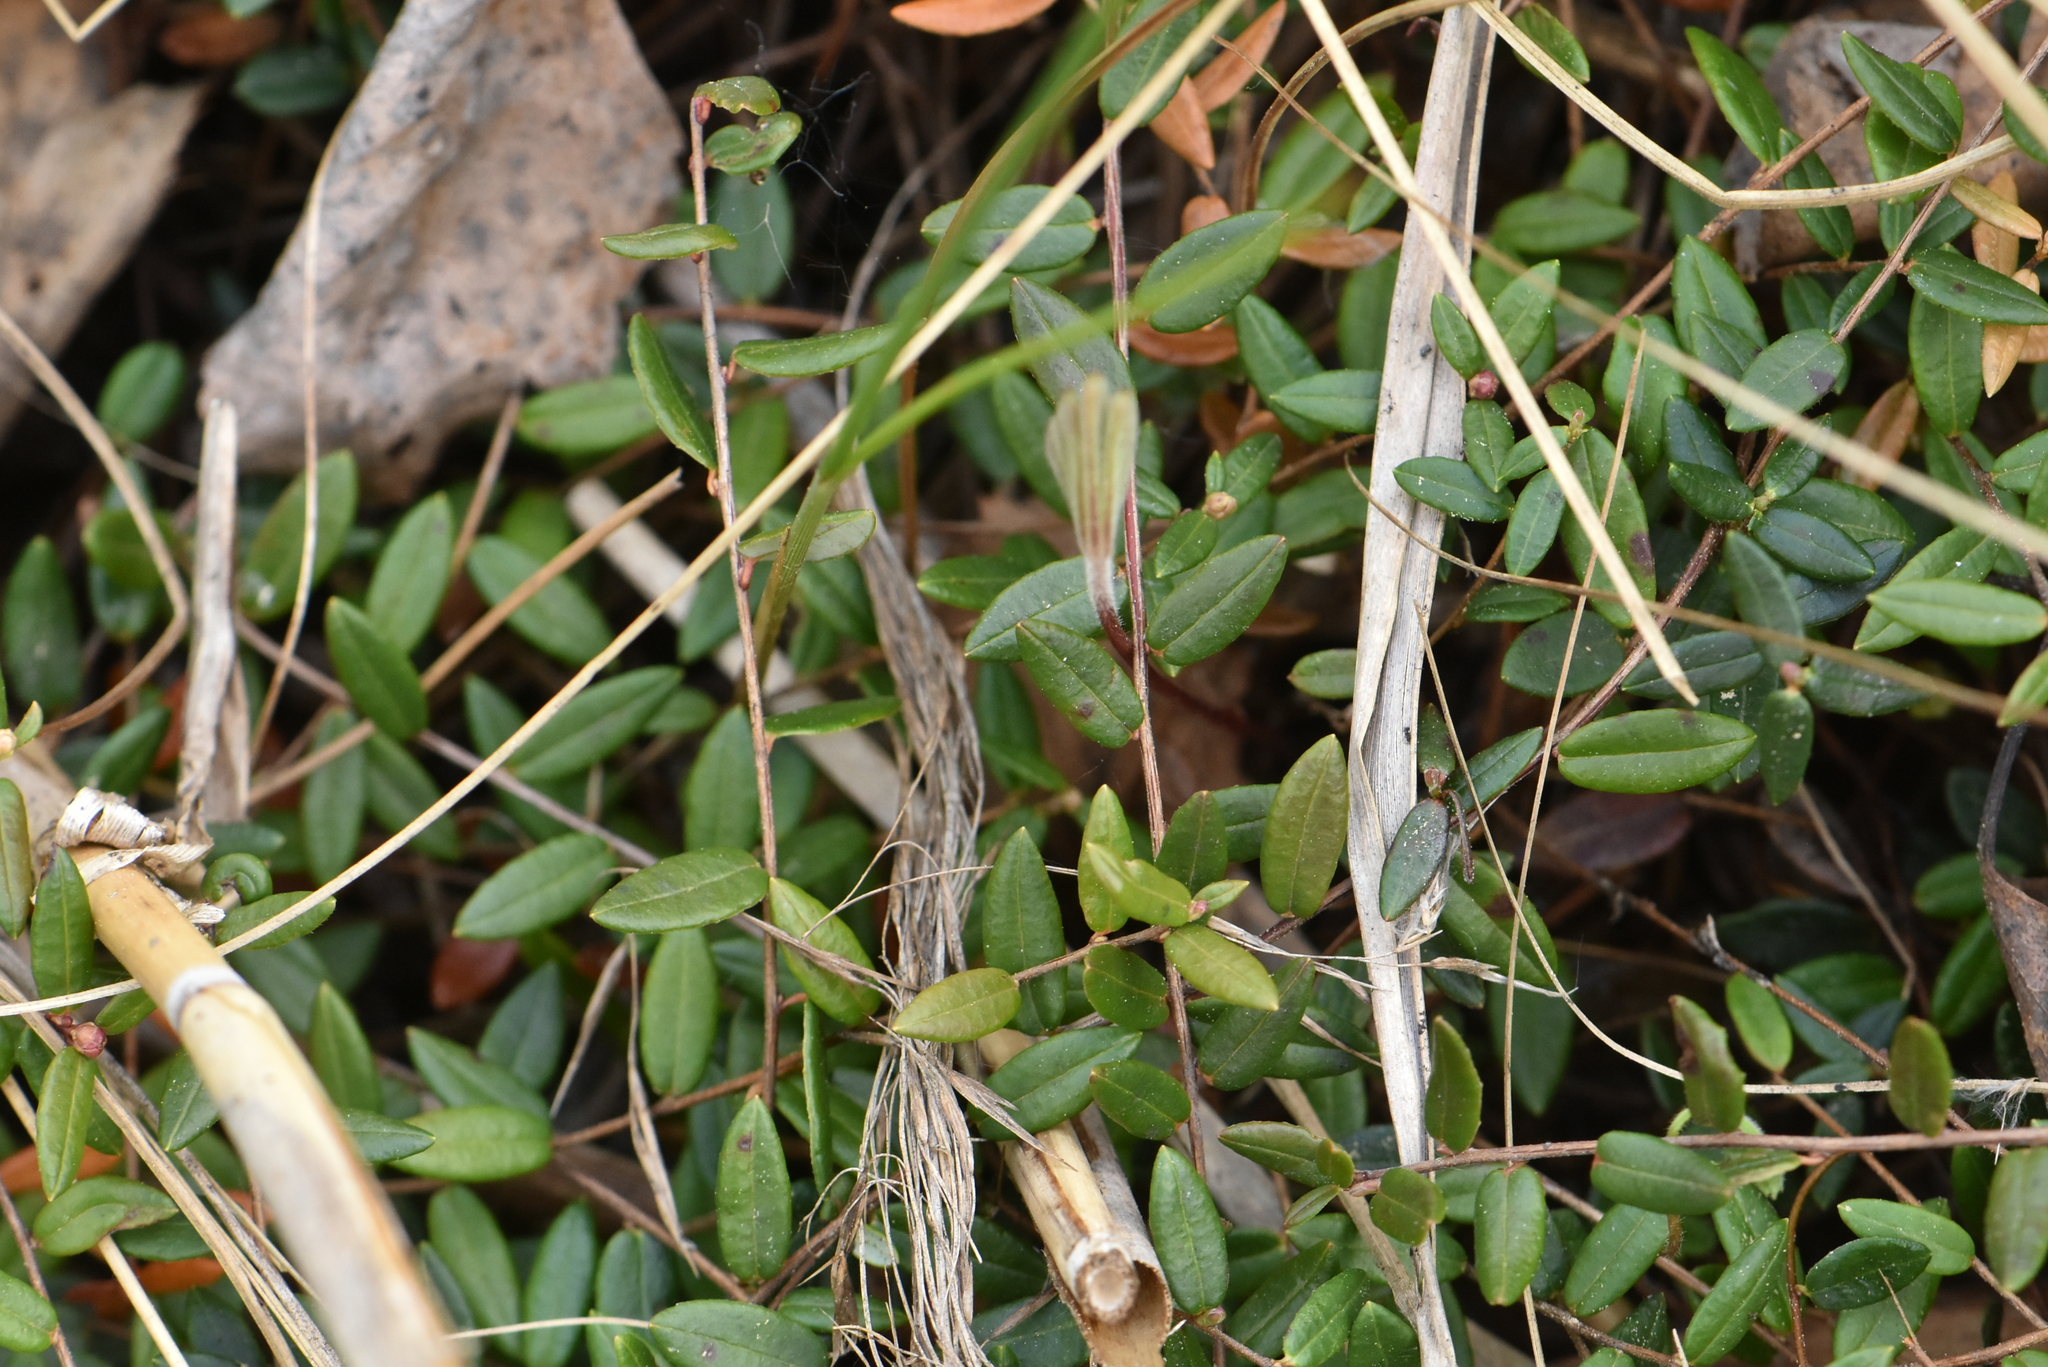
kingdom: Plantae
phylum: Tracheophyta
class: Magnoliopsida
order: Ericales
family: Ericaceae
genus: Vaccinium
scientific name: Vaccinium oxycoccos
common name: Cranberry
